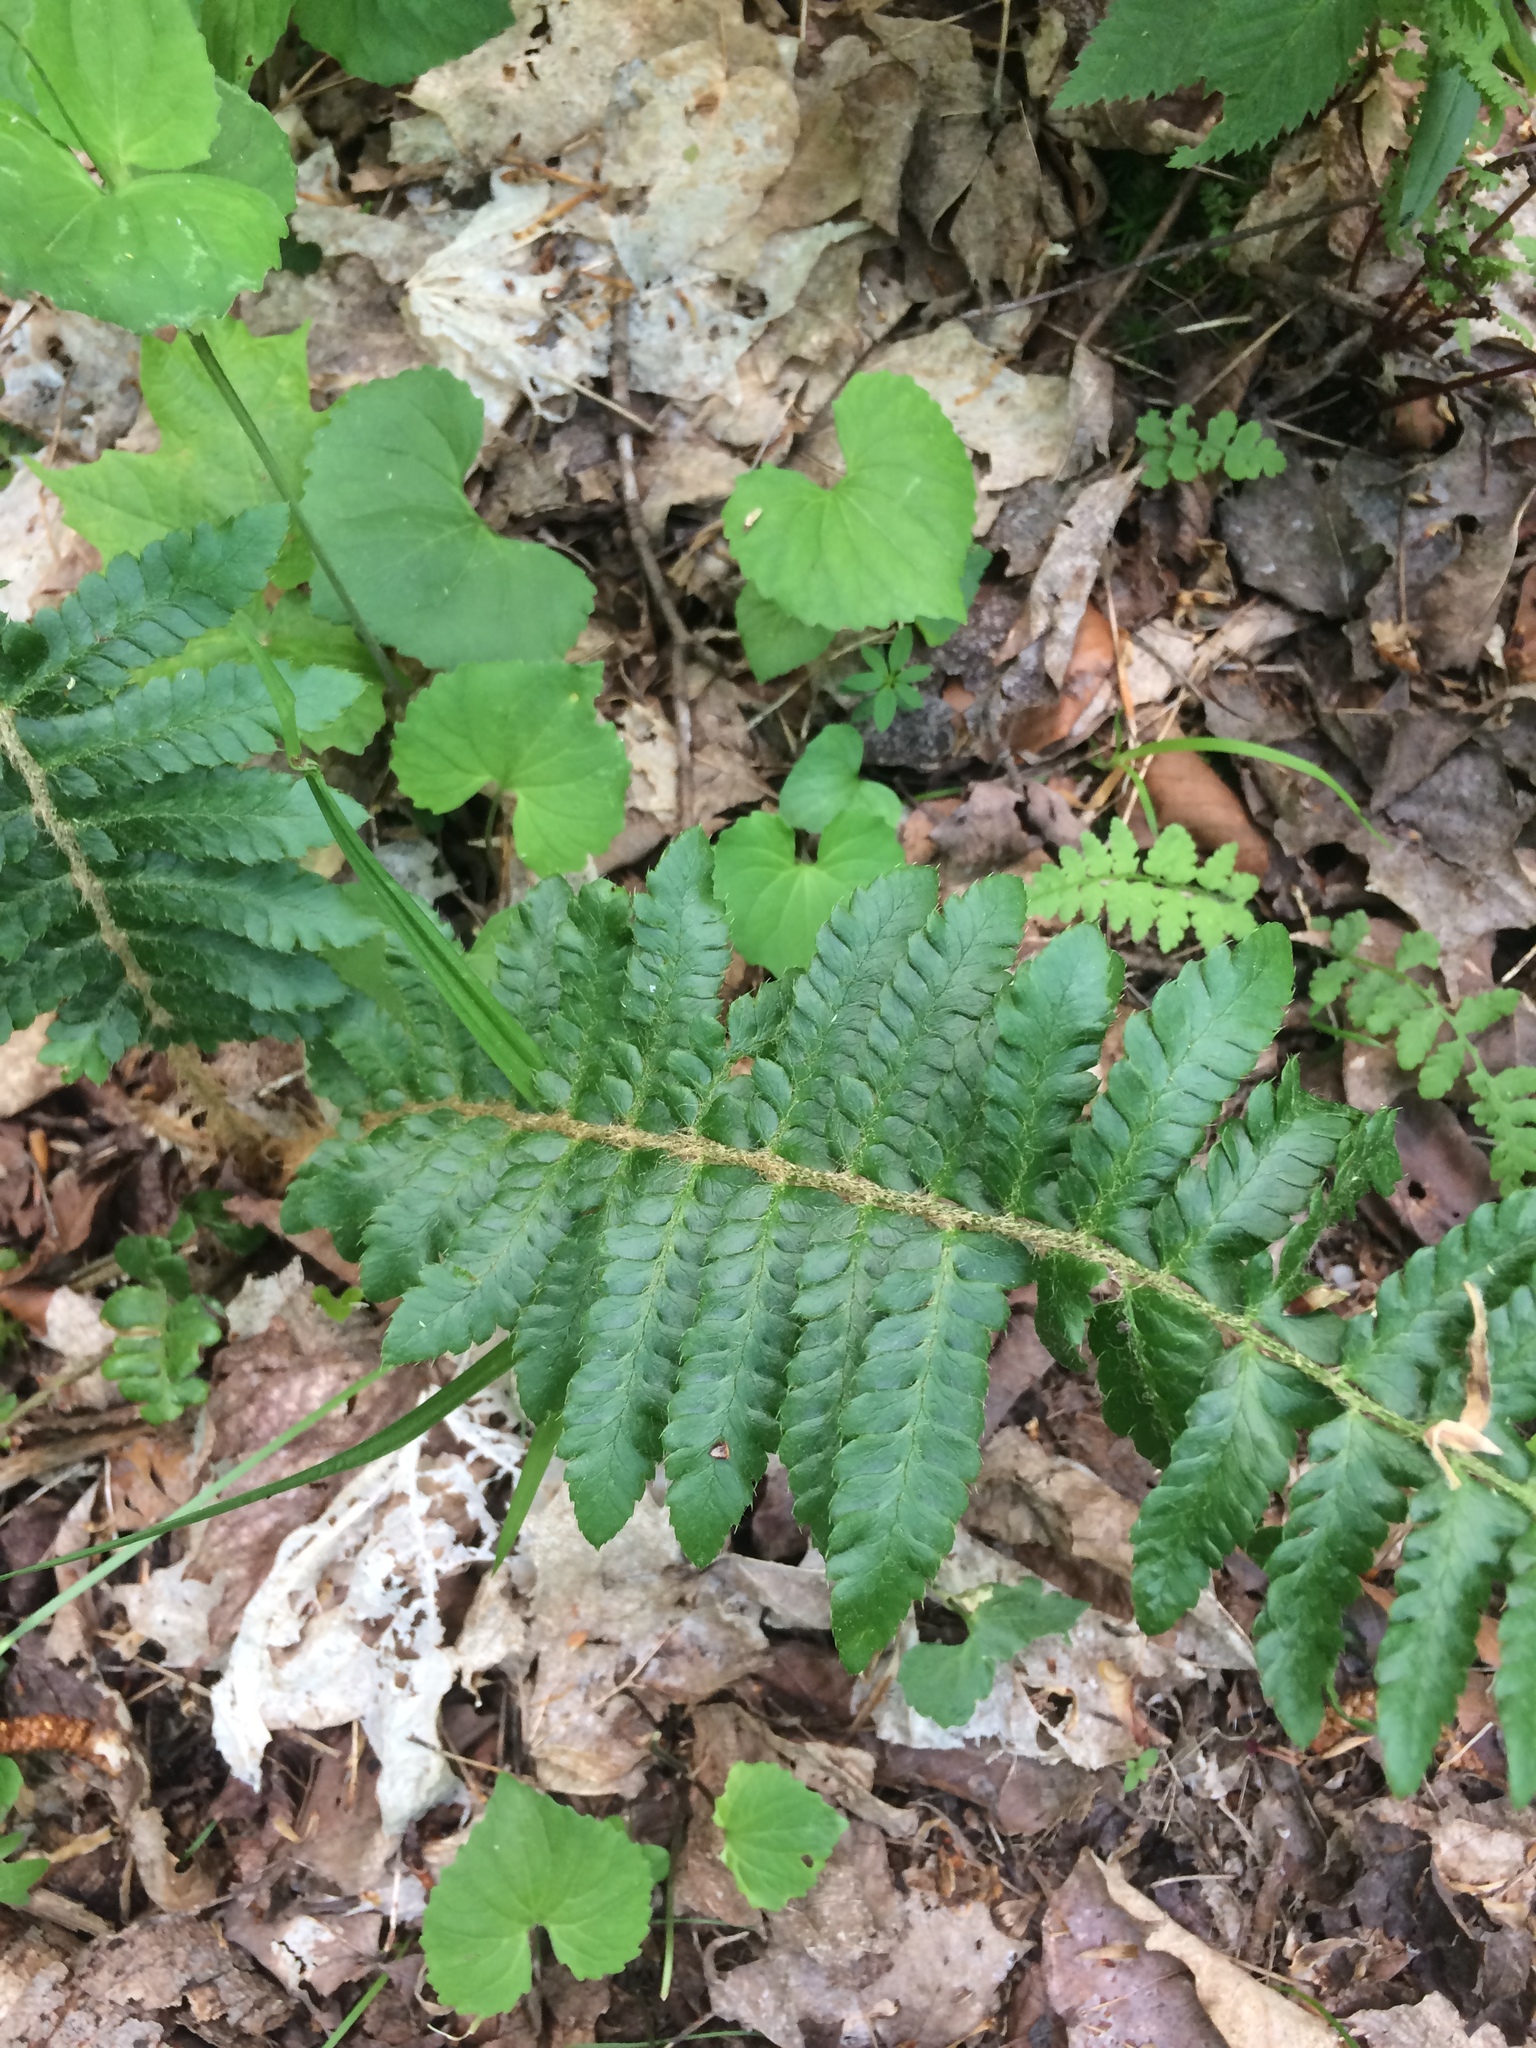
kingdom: Plantae
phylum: Tracheophyta
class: Polypodiopsida
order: Polypodiales
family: Dryopteridaceae
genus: Polystichum
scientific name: Polystichum braunii
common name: Braun's holly fern
